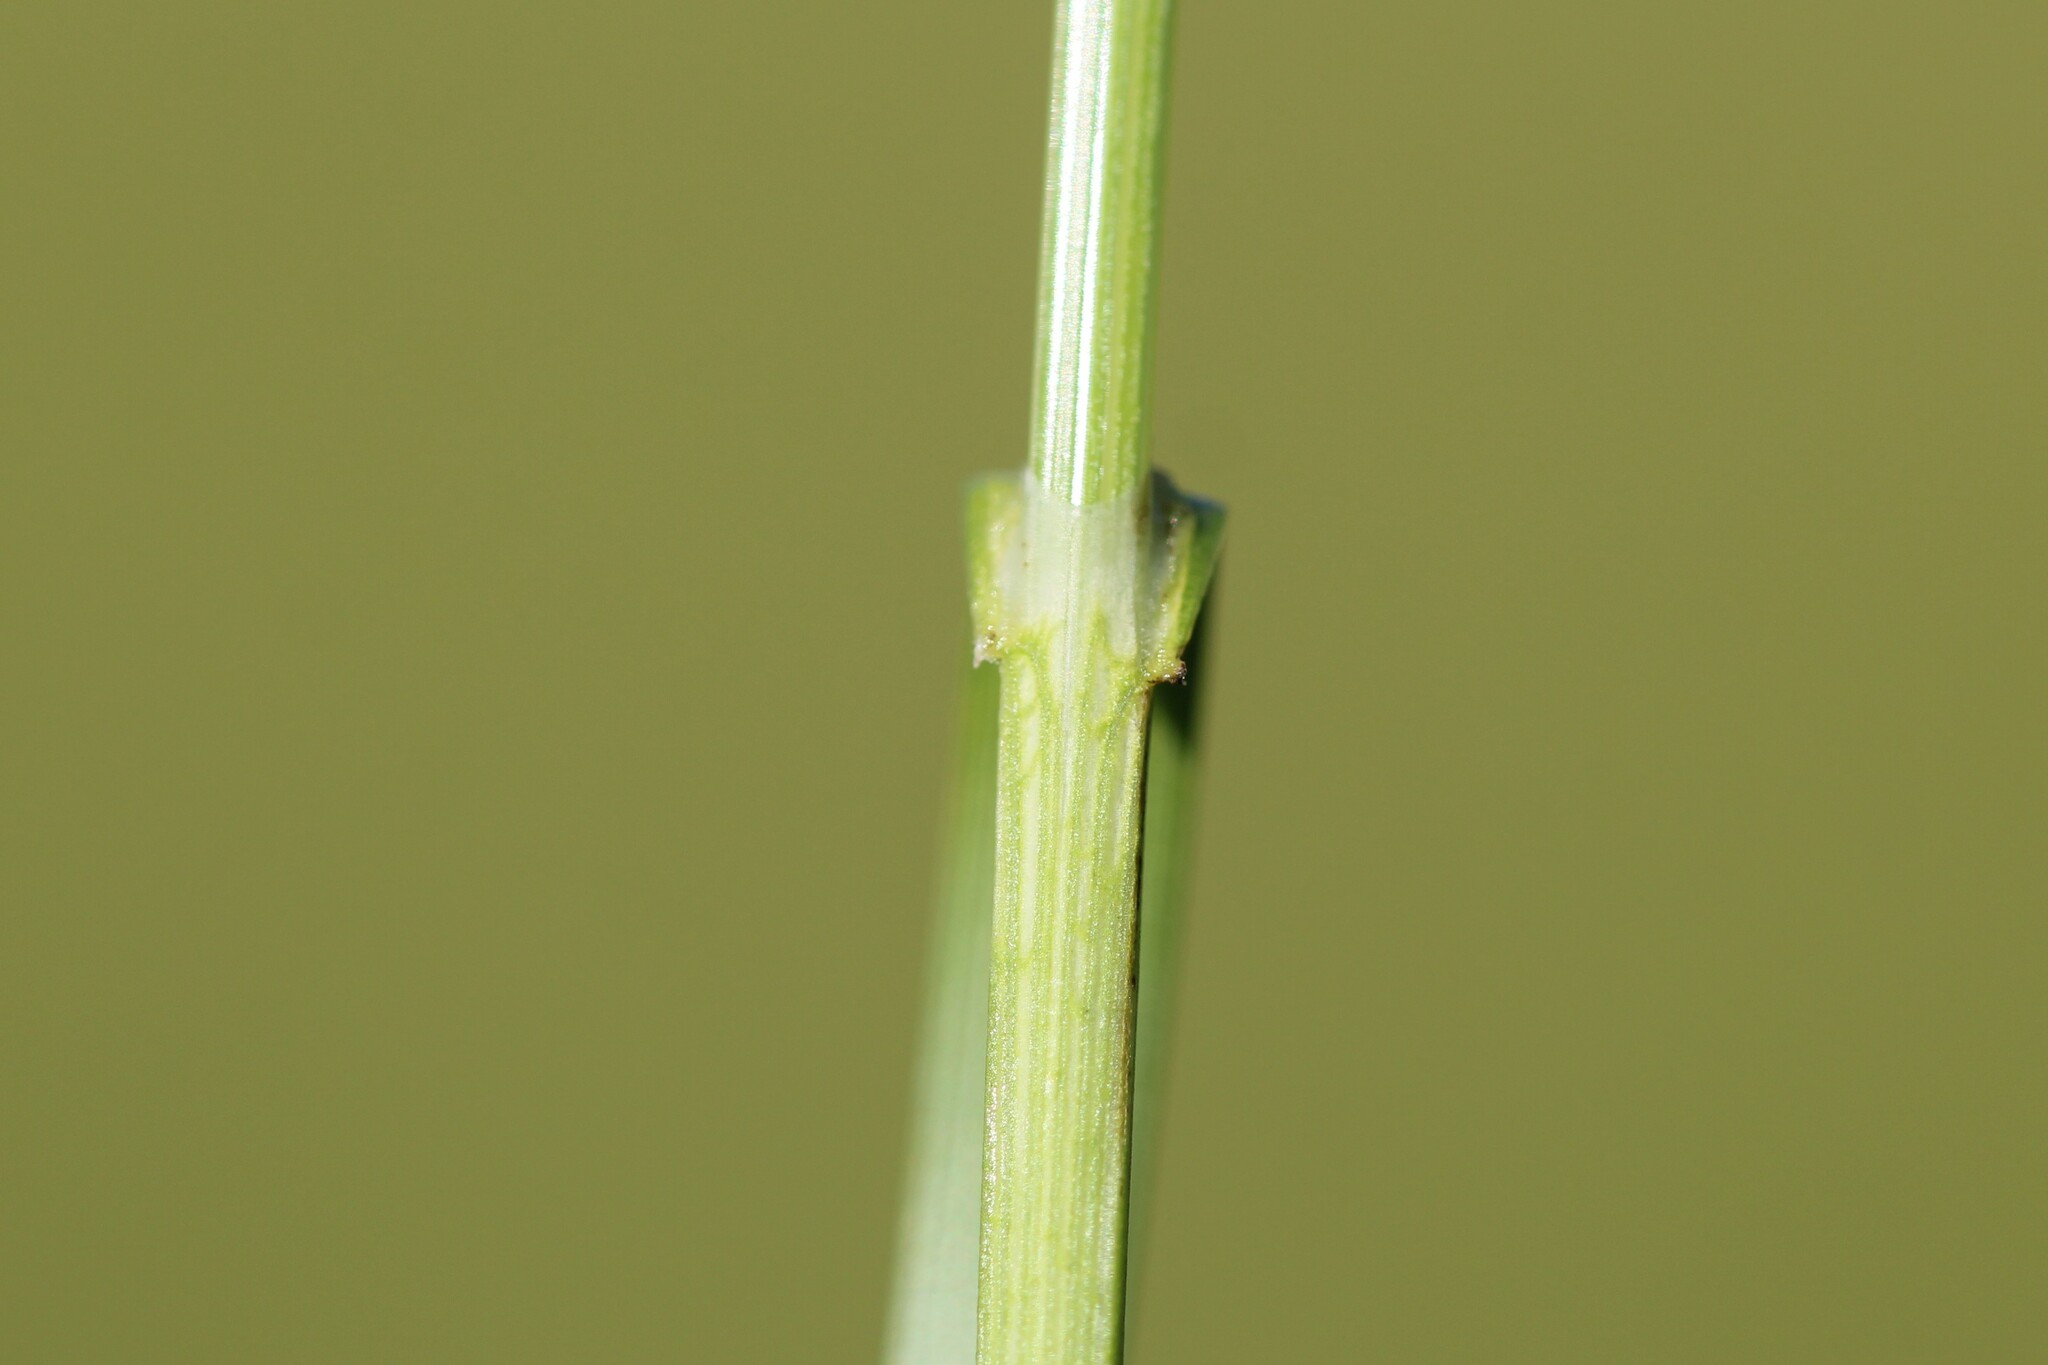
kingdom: Plantae
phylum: Tracheophyta
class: Liliopsida
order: Poales
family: Cyperaceae
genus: Carex
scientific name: Carex sartwellii
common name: Sartwell's sedge
